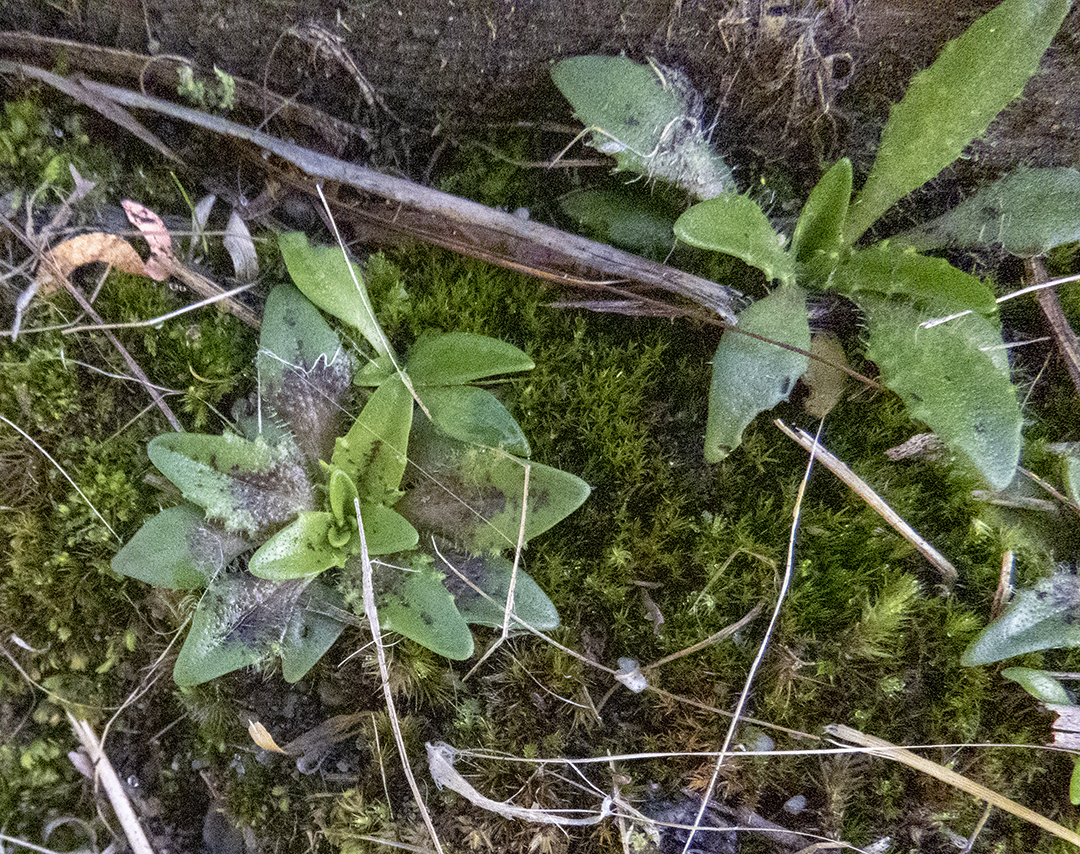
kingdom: Plantae
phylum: Tracheophyta
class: Magnoliopsida
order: Lamiales
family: Plantaginaceae
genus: Plantago
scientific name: Plantago triandra
